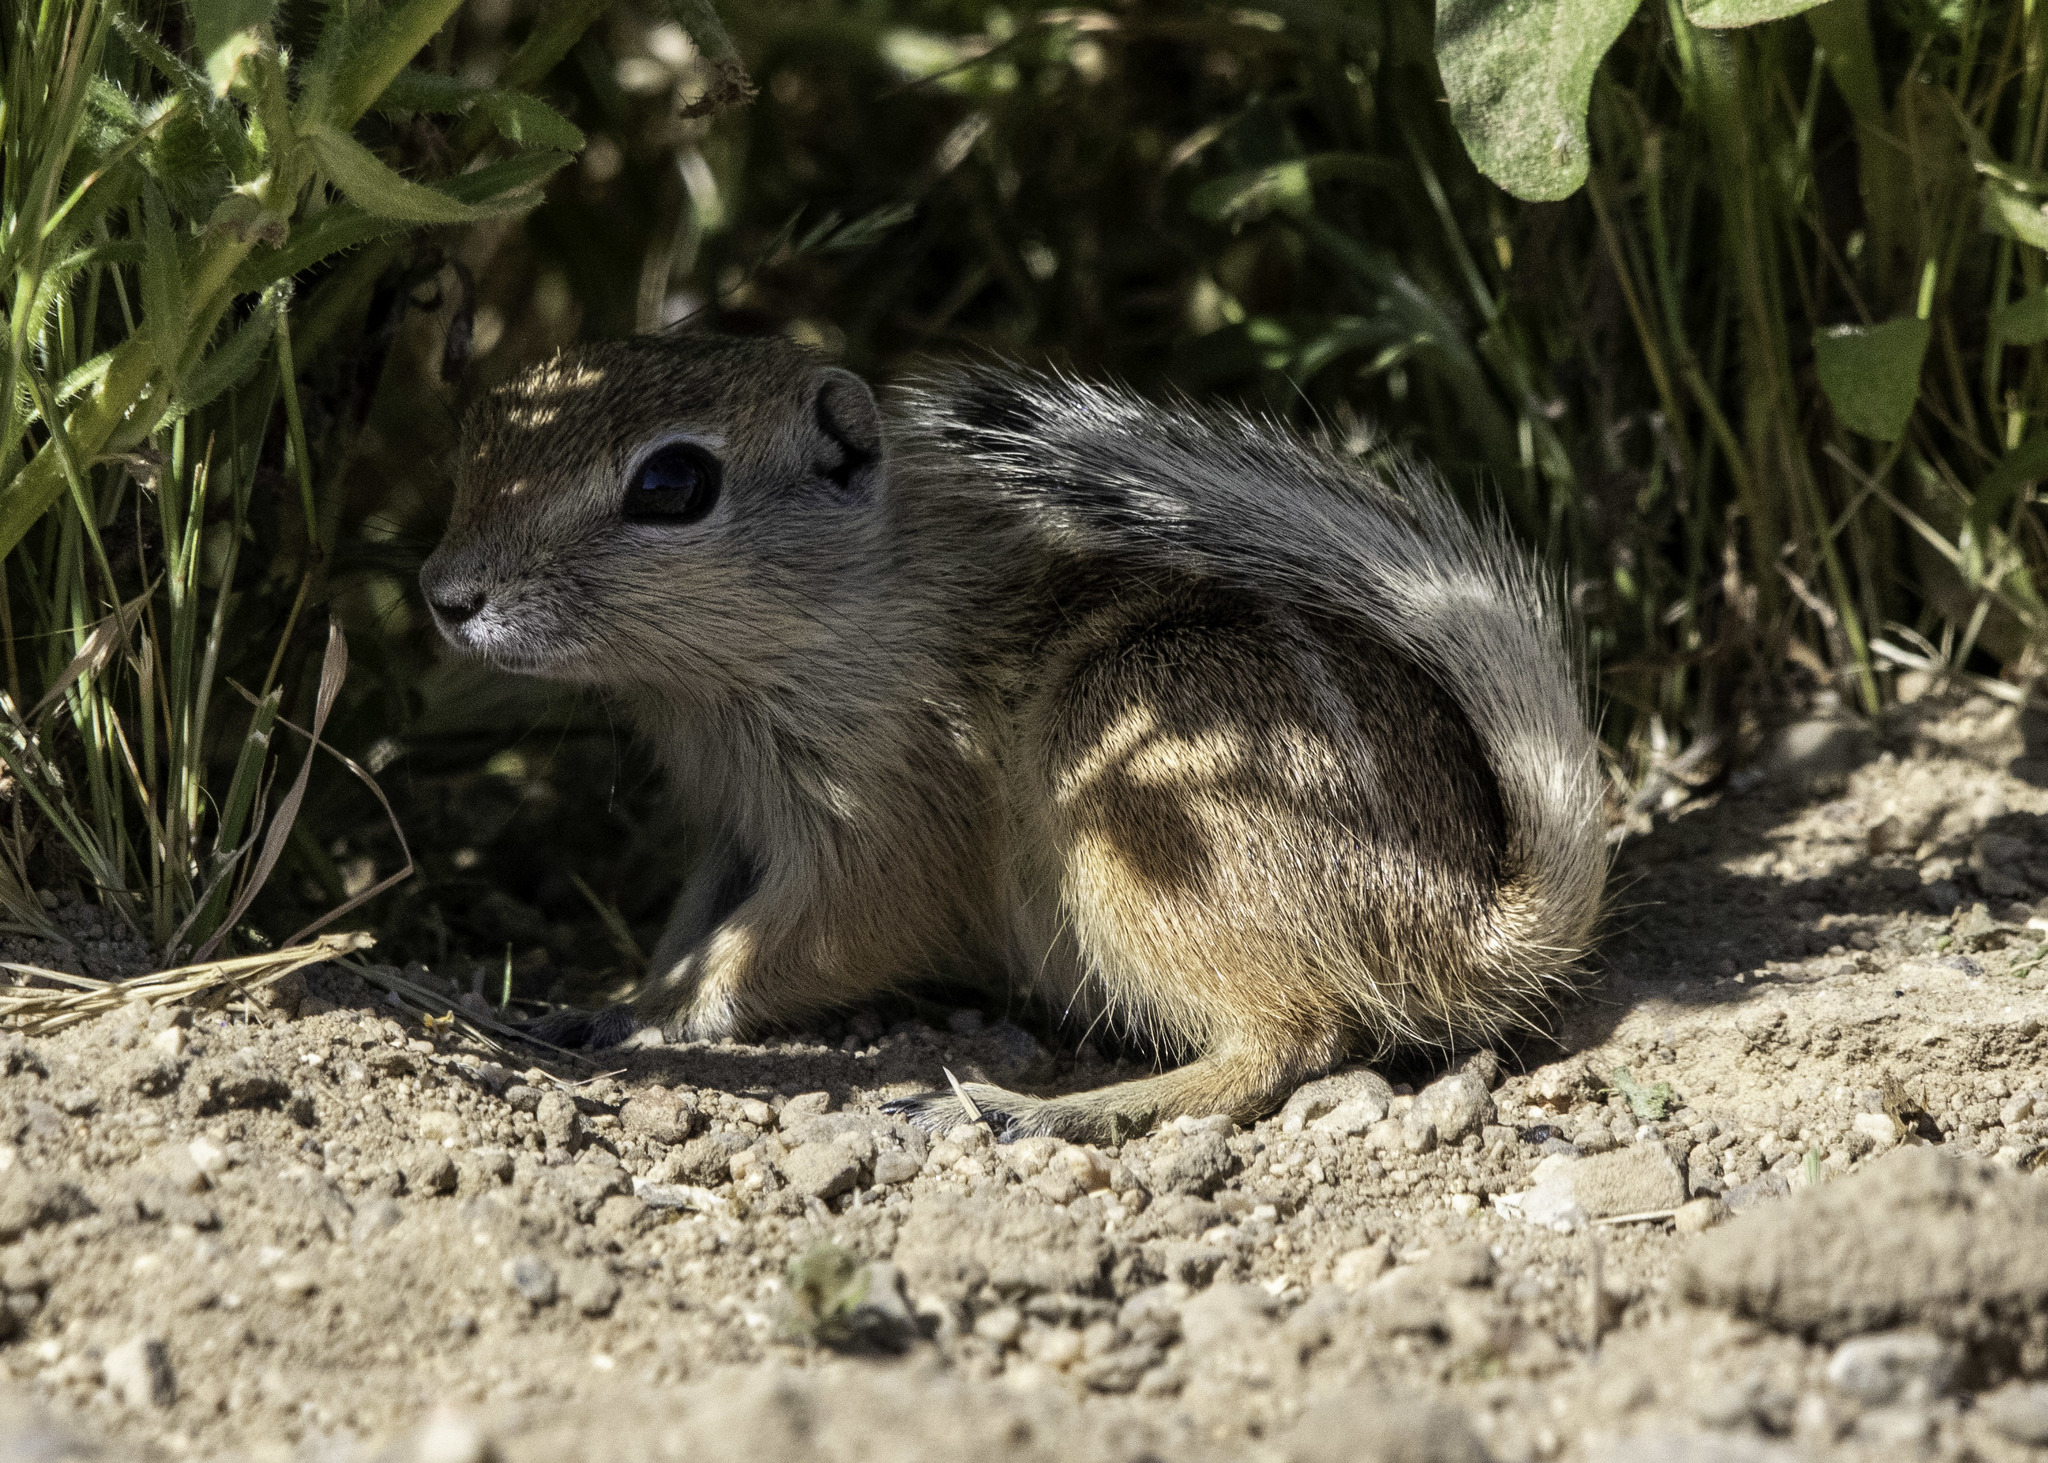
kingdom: Animalia
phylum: Chordata
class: Mammalia
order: Rodentia
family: Sciuridae
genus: Ammospermophilus
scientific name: Ammospermophilus nelsoni
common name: Nelson's antelope squirrel
